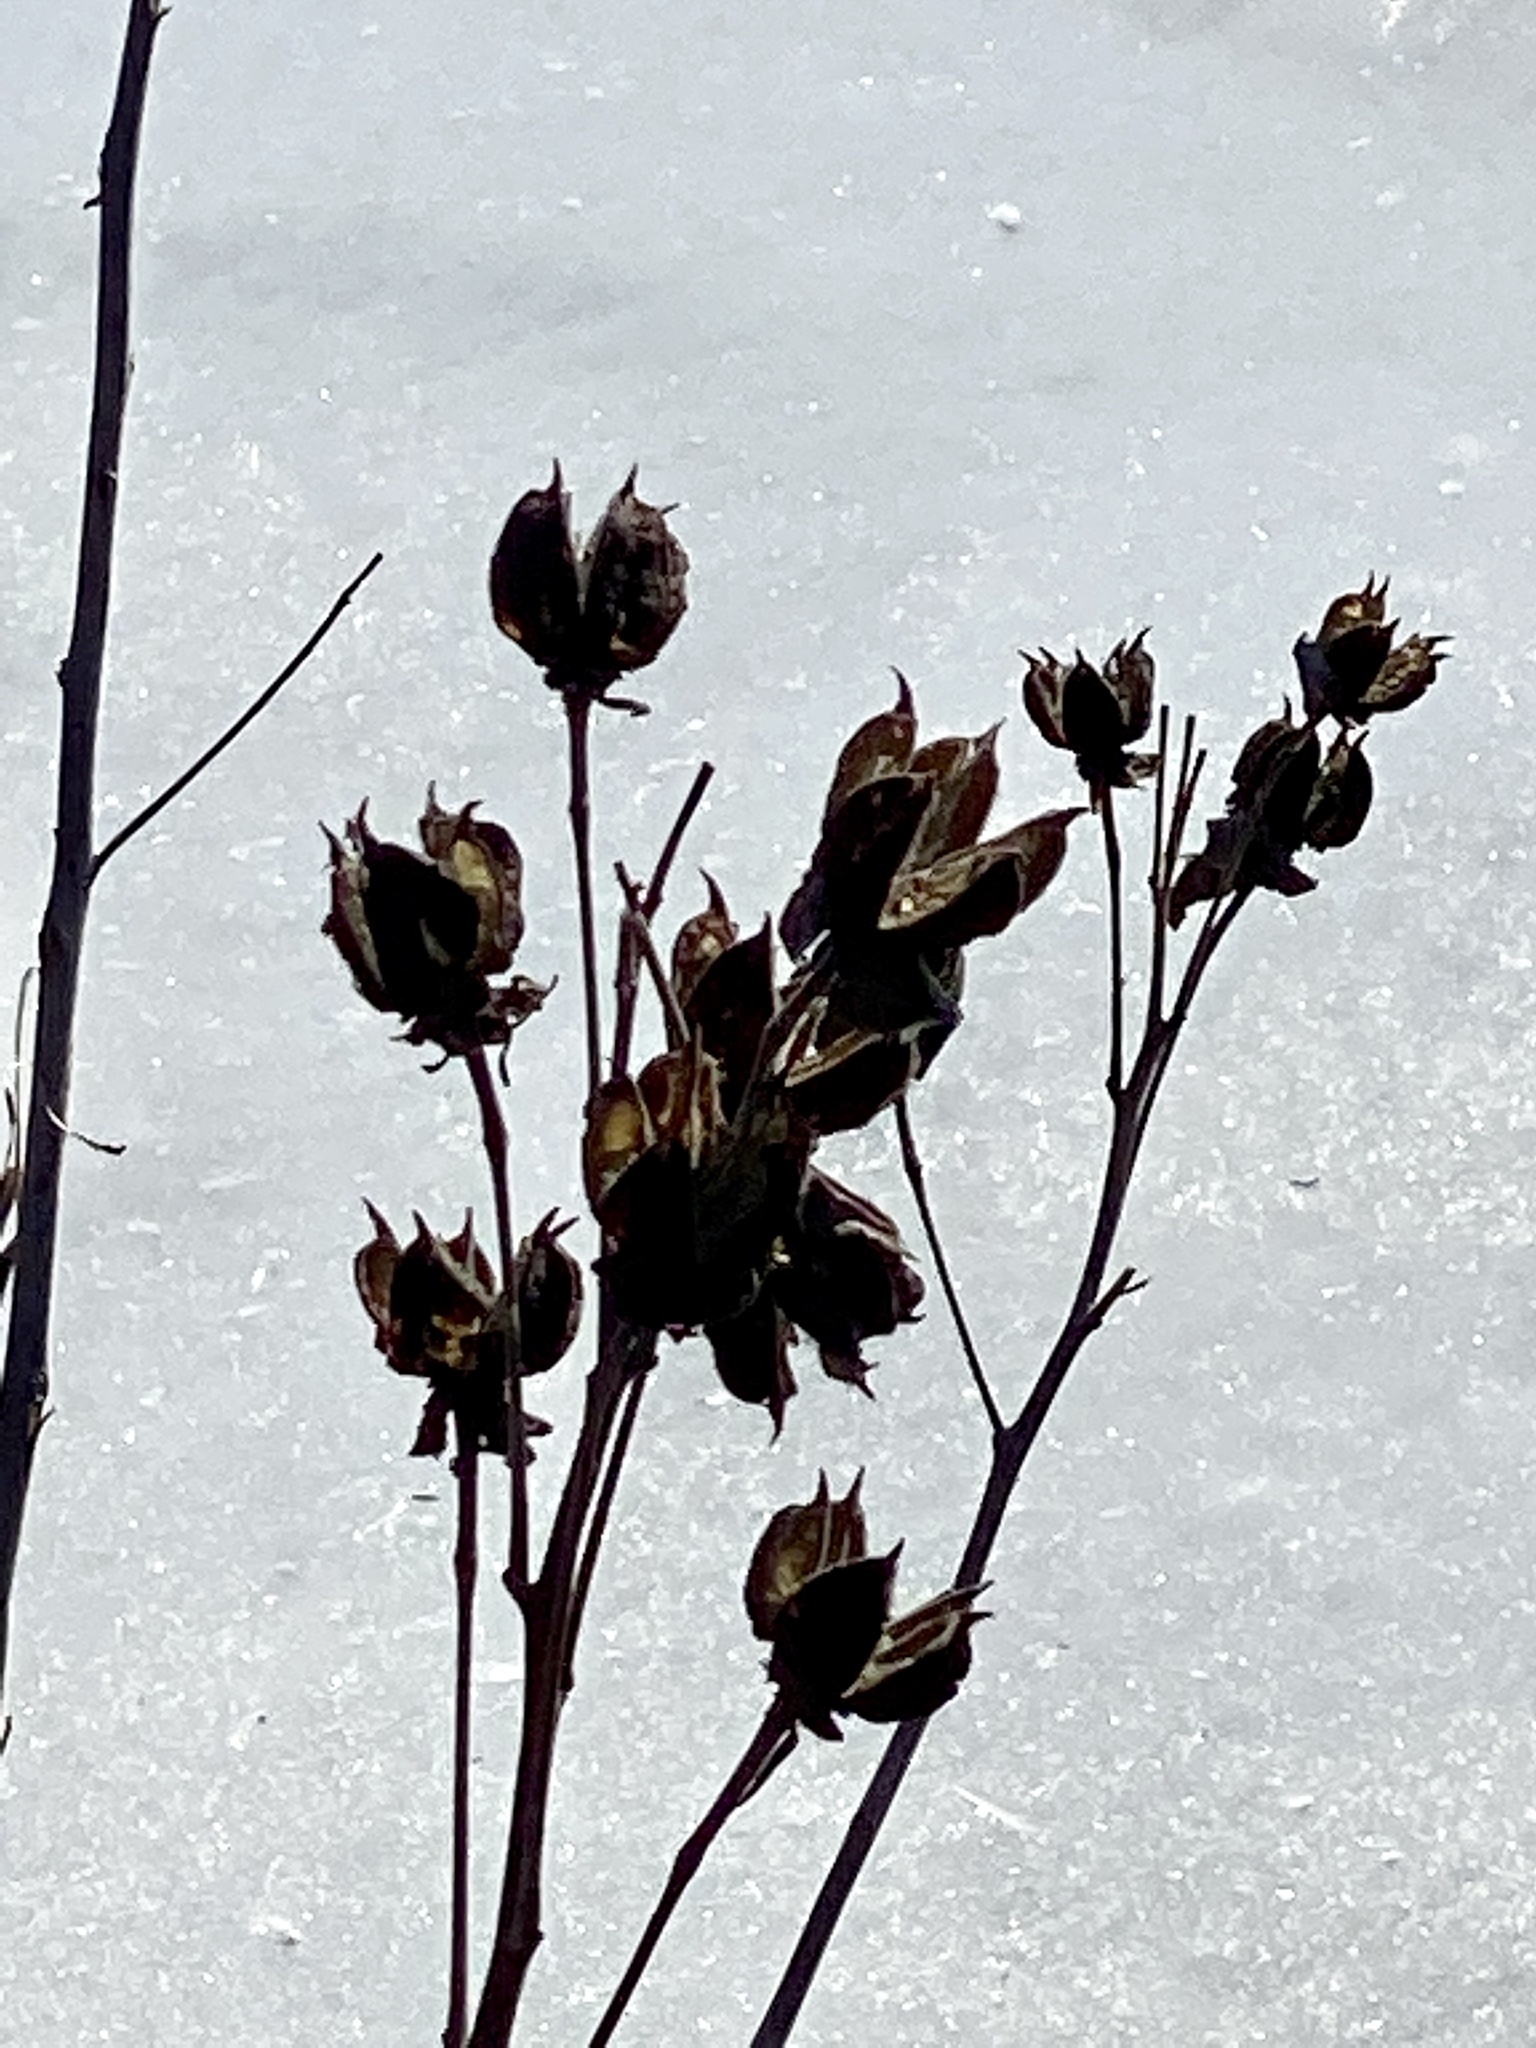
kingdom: Plantae
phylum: Tracheophyta
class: Magnoliopsida
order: Malvales
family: Malvaceae
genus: Hibiscus
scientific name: Hibiscus moscheutos
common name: Common rose-mallow
